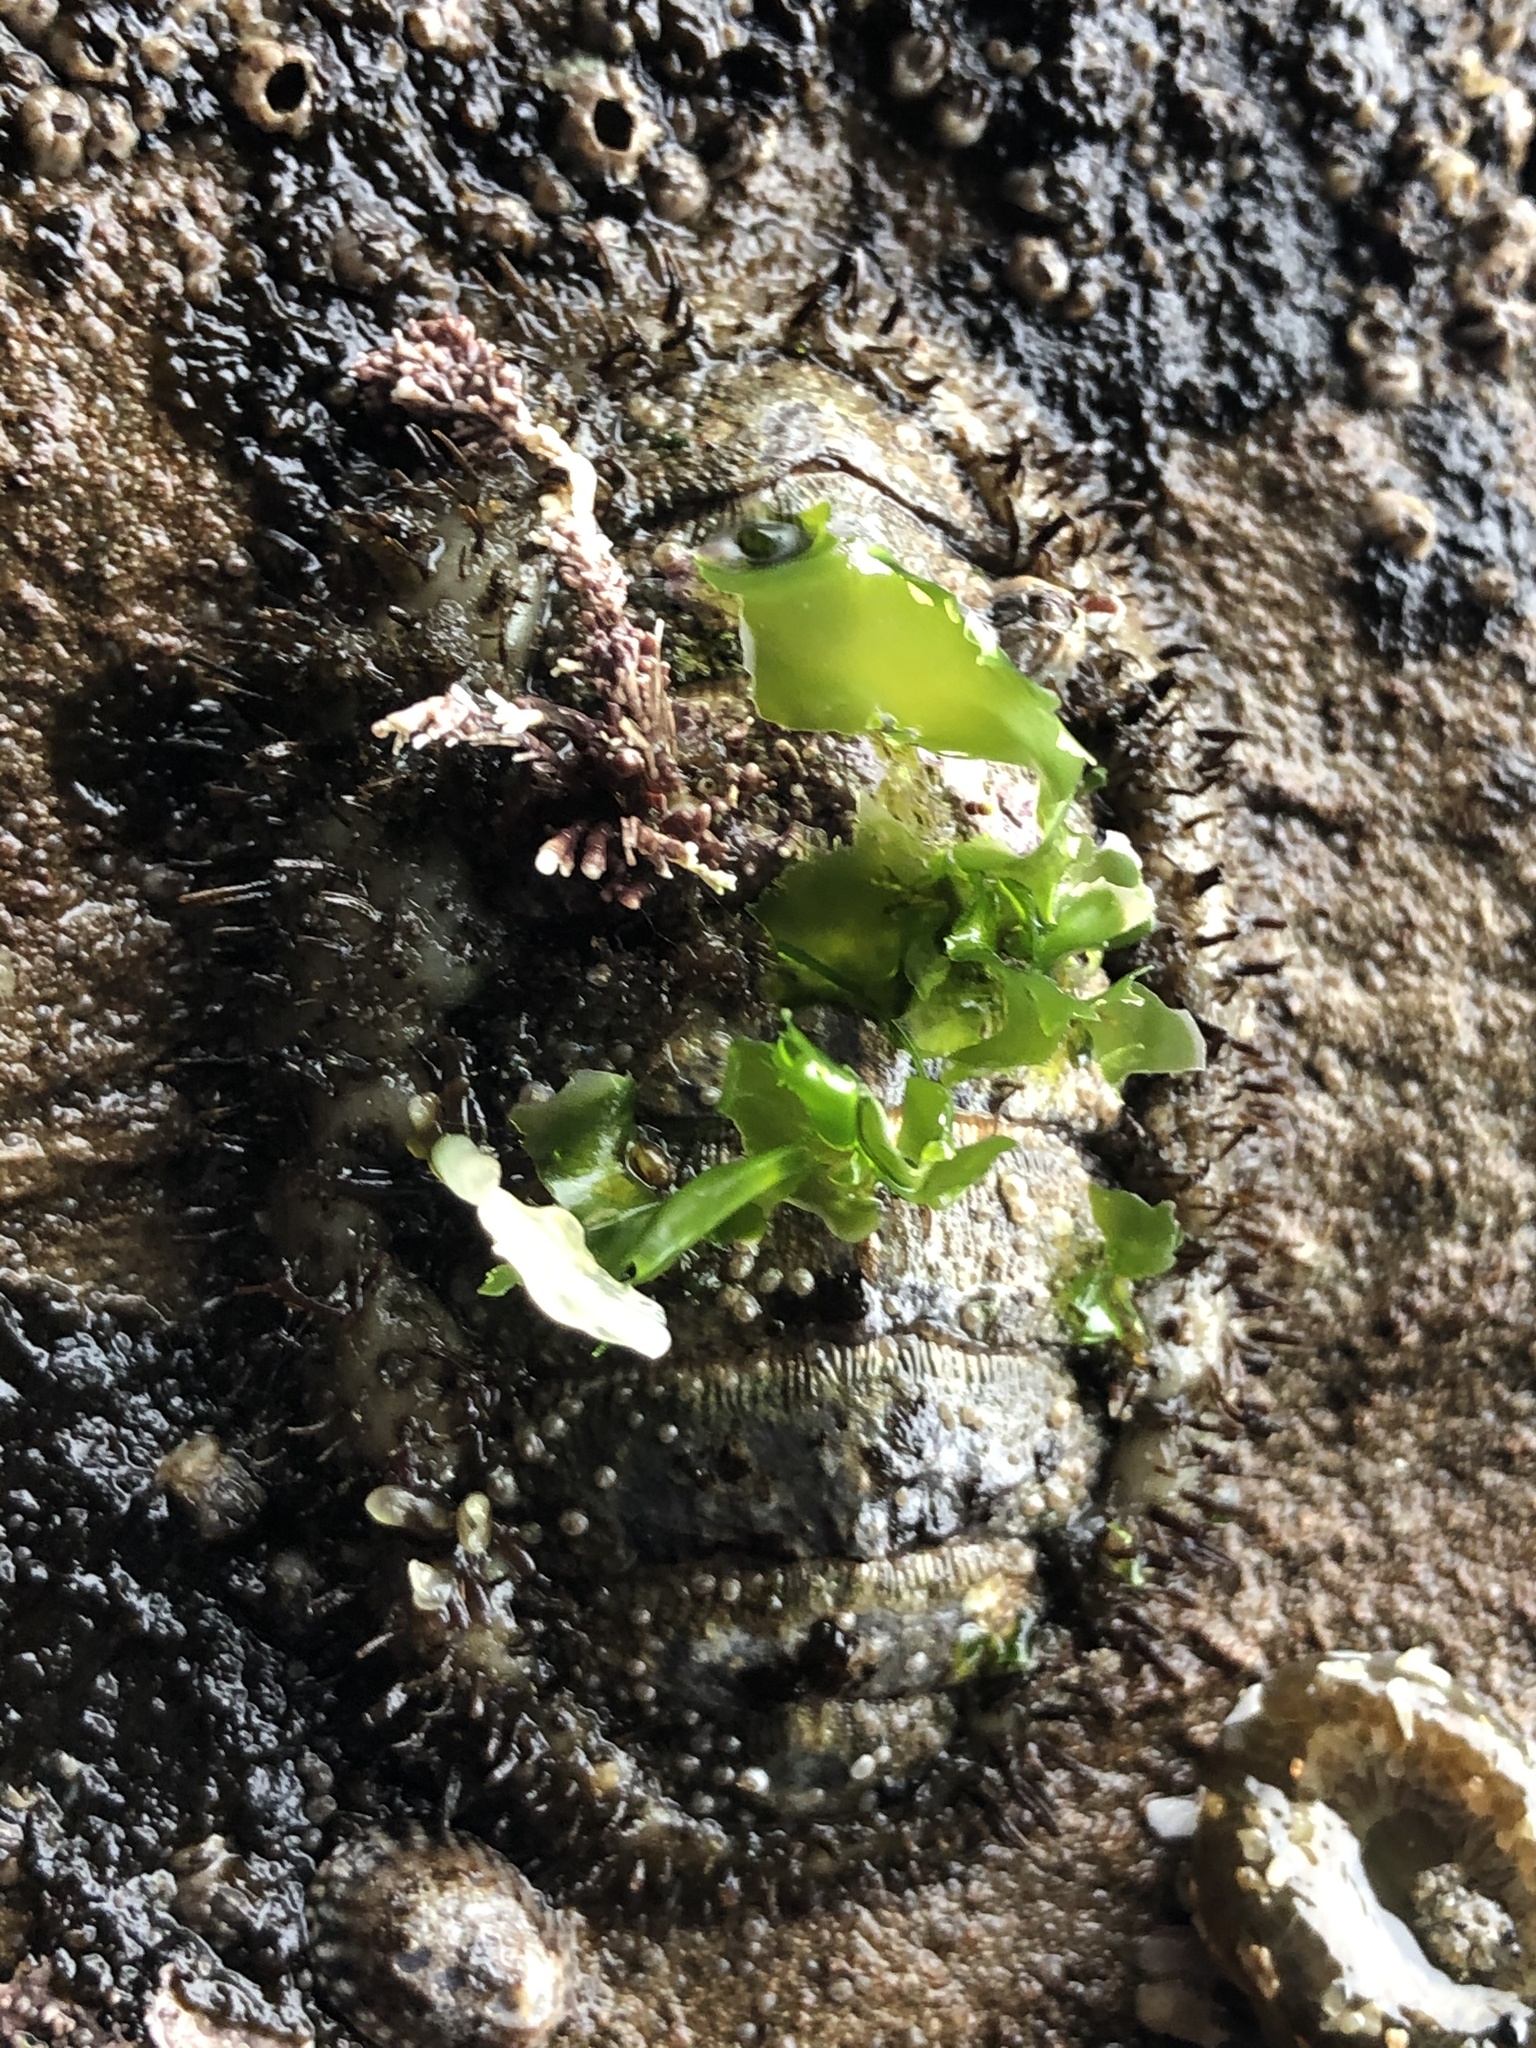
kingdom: Animalia
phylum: Mollusca
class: Polyplacophora
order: Chitonida
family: Mopaliidae
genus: Mopalia
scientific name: Mopalia muscosa
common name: Mossy chiton
